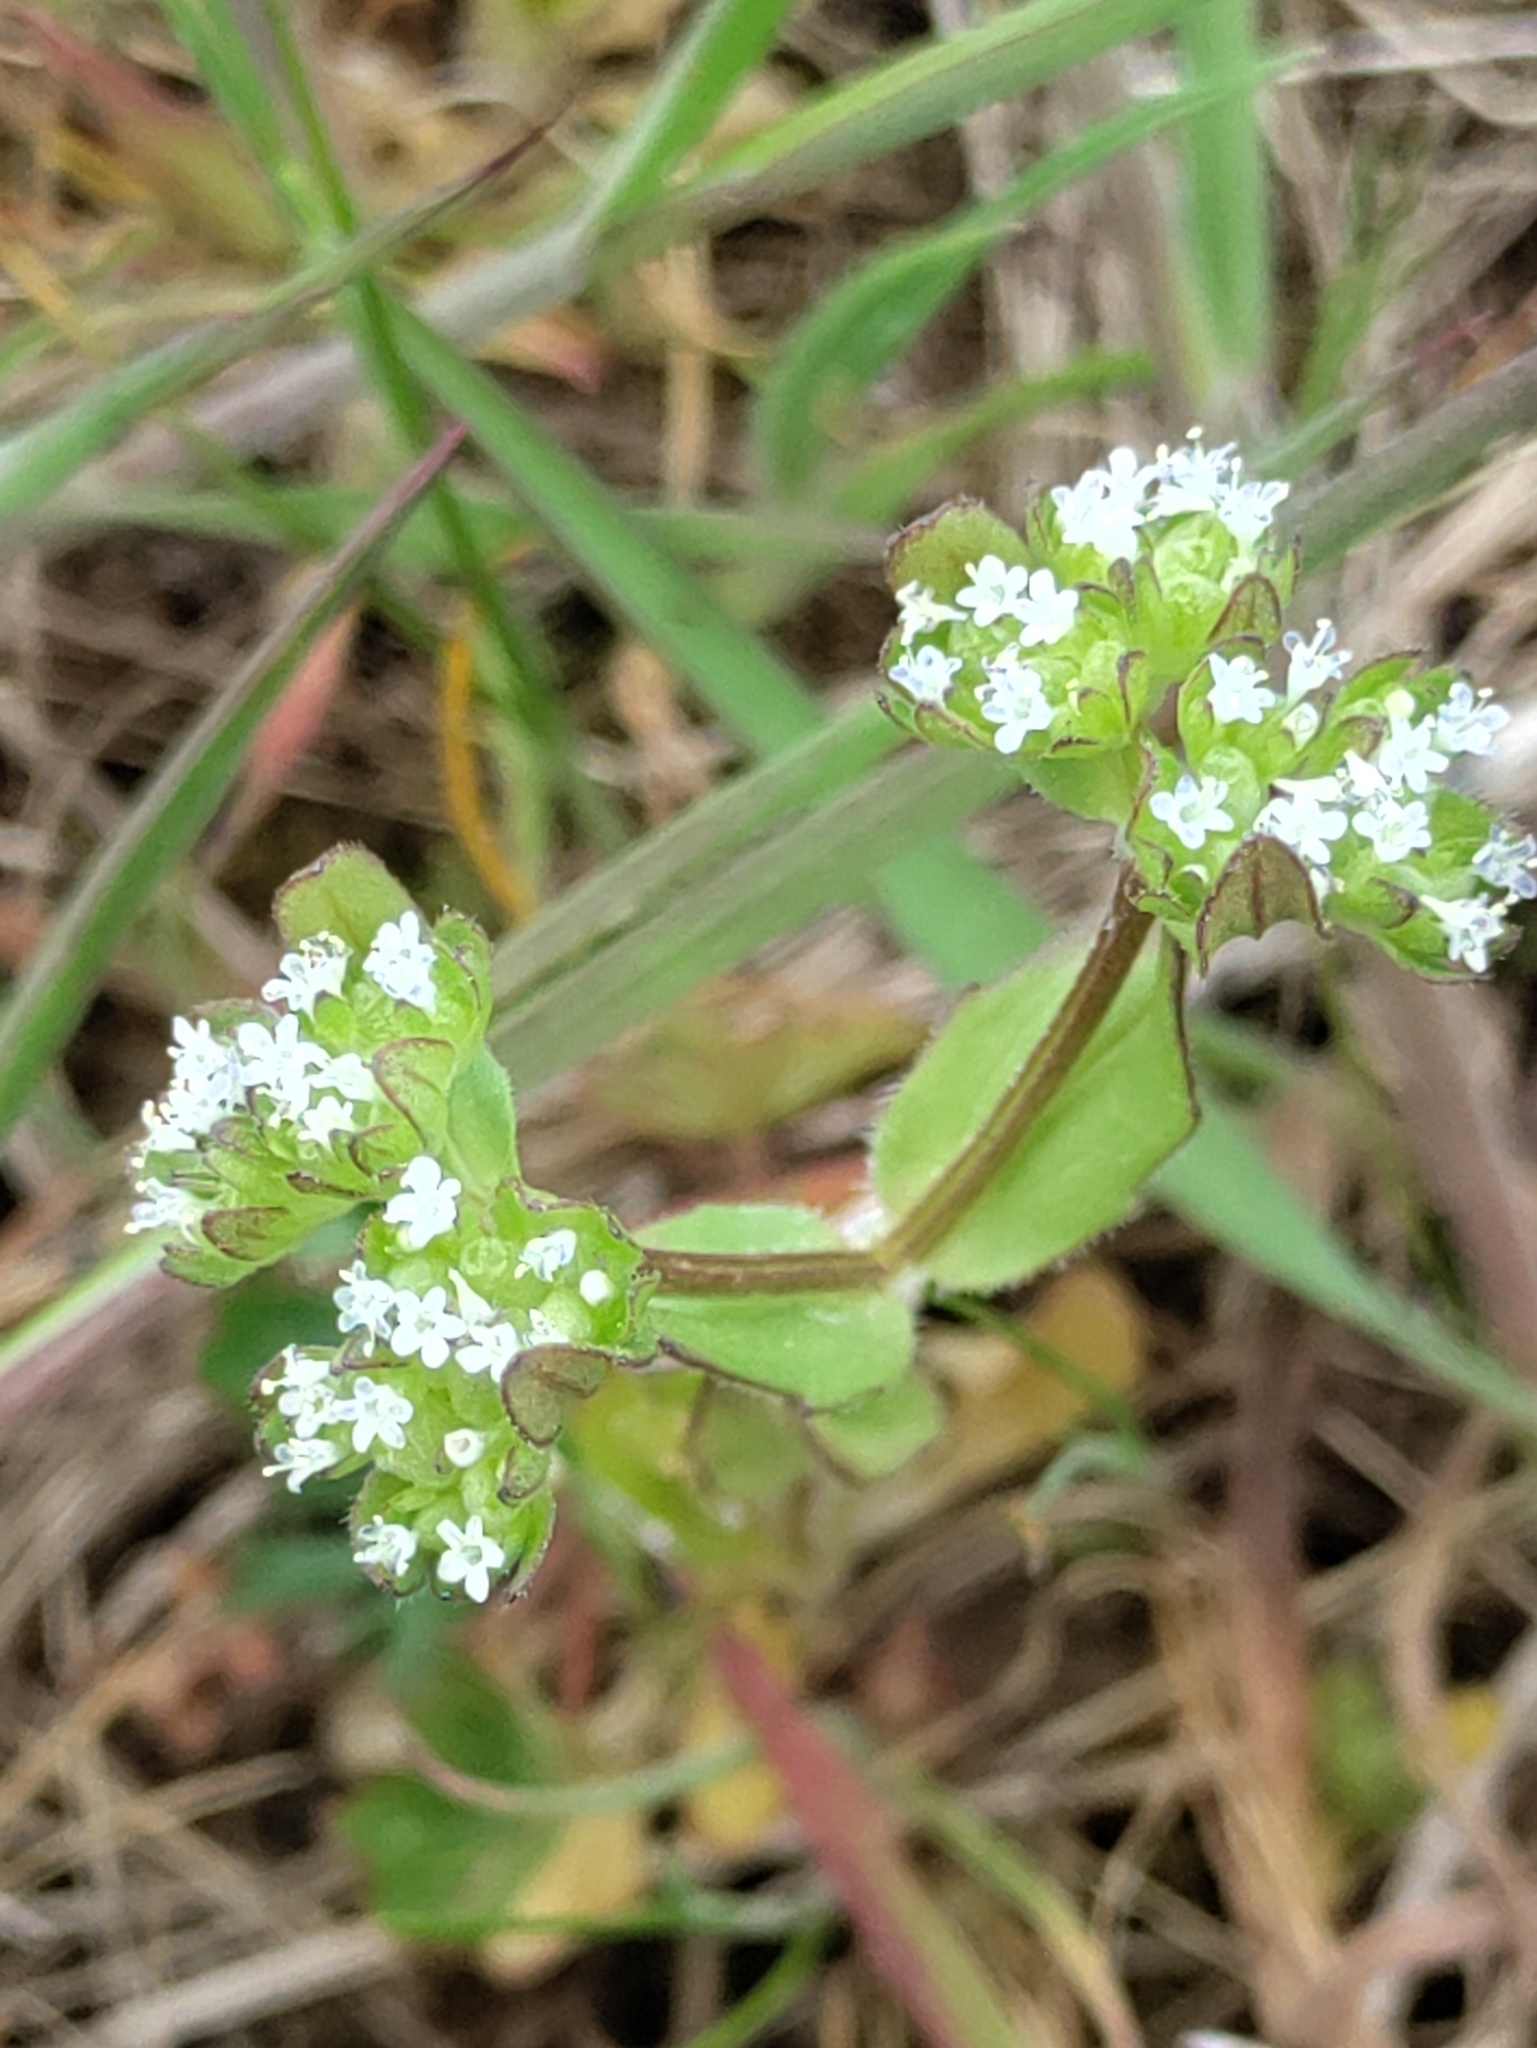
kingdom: Plantae
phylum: Tracheophyta
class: Magnoliopsida
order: Dipsacales
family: Caprifoliaceae
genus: Valerianella
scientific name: Valerianella locusta
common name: Common cornsalad
